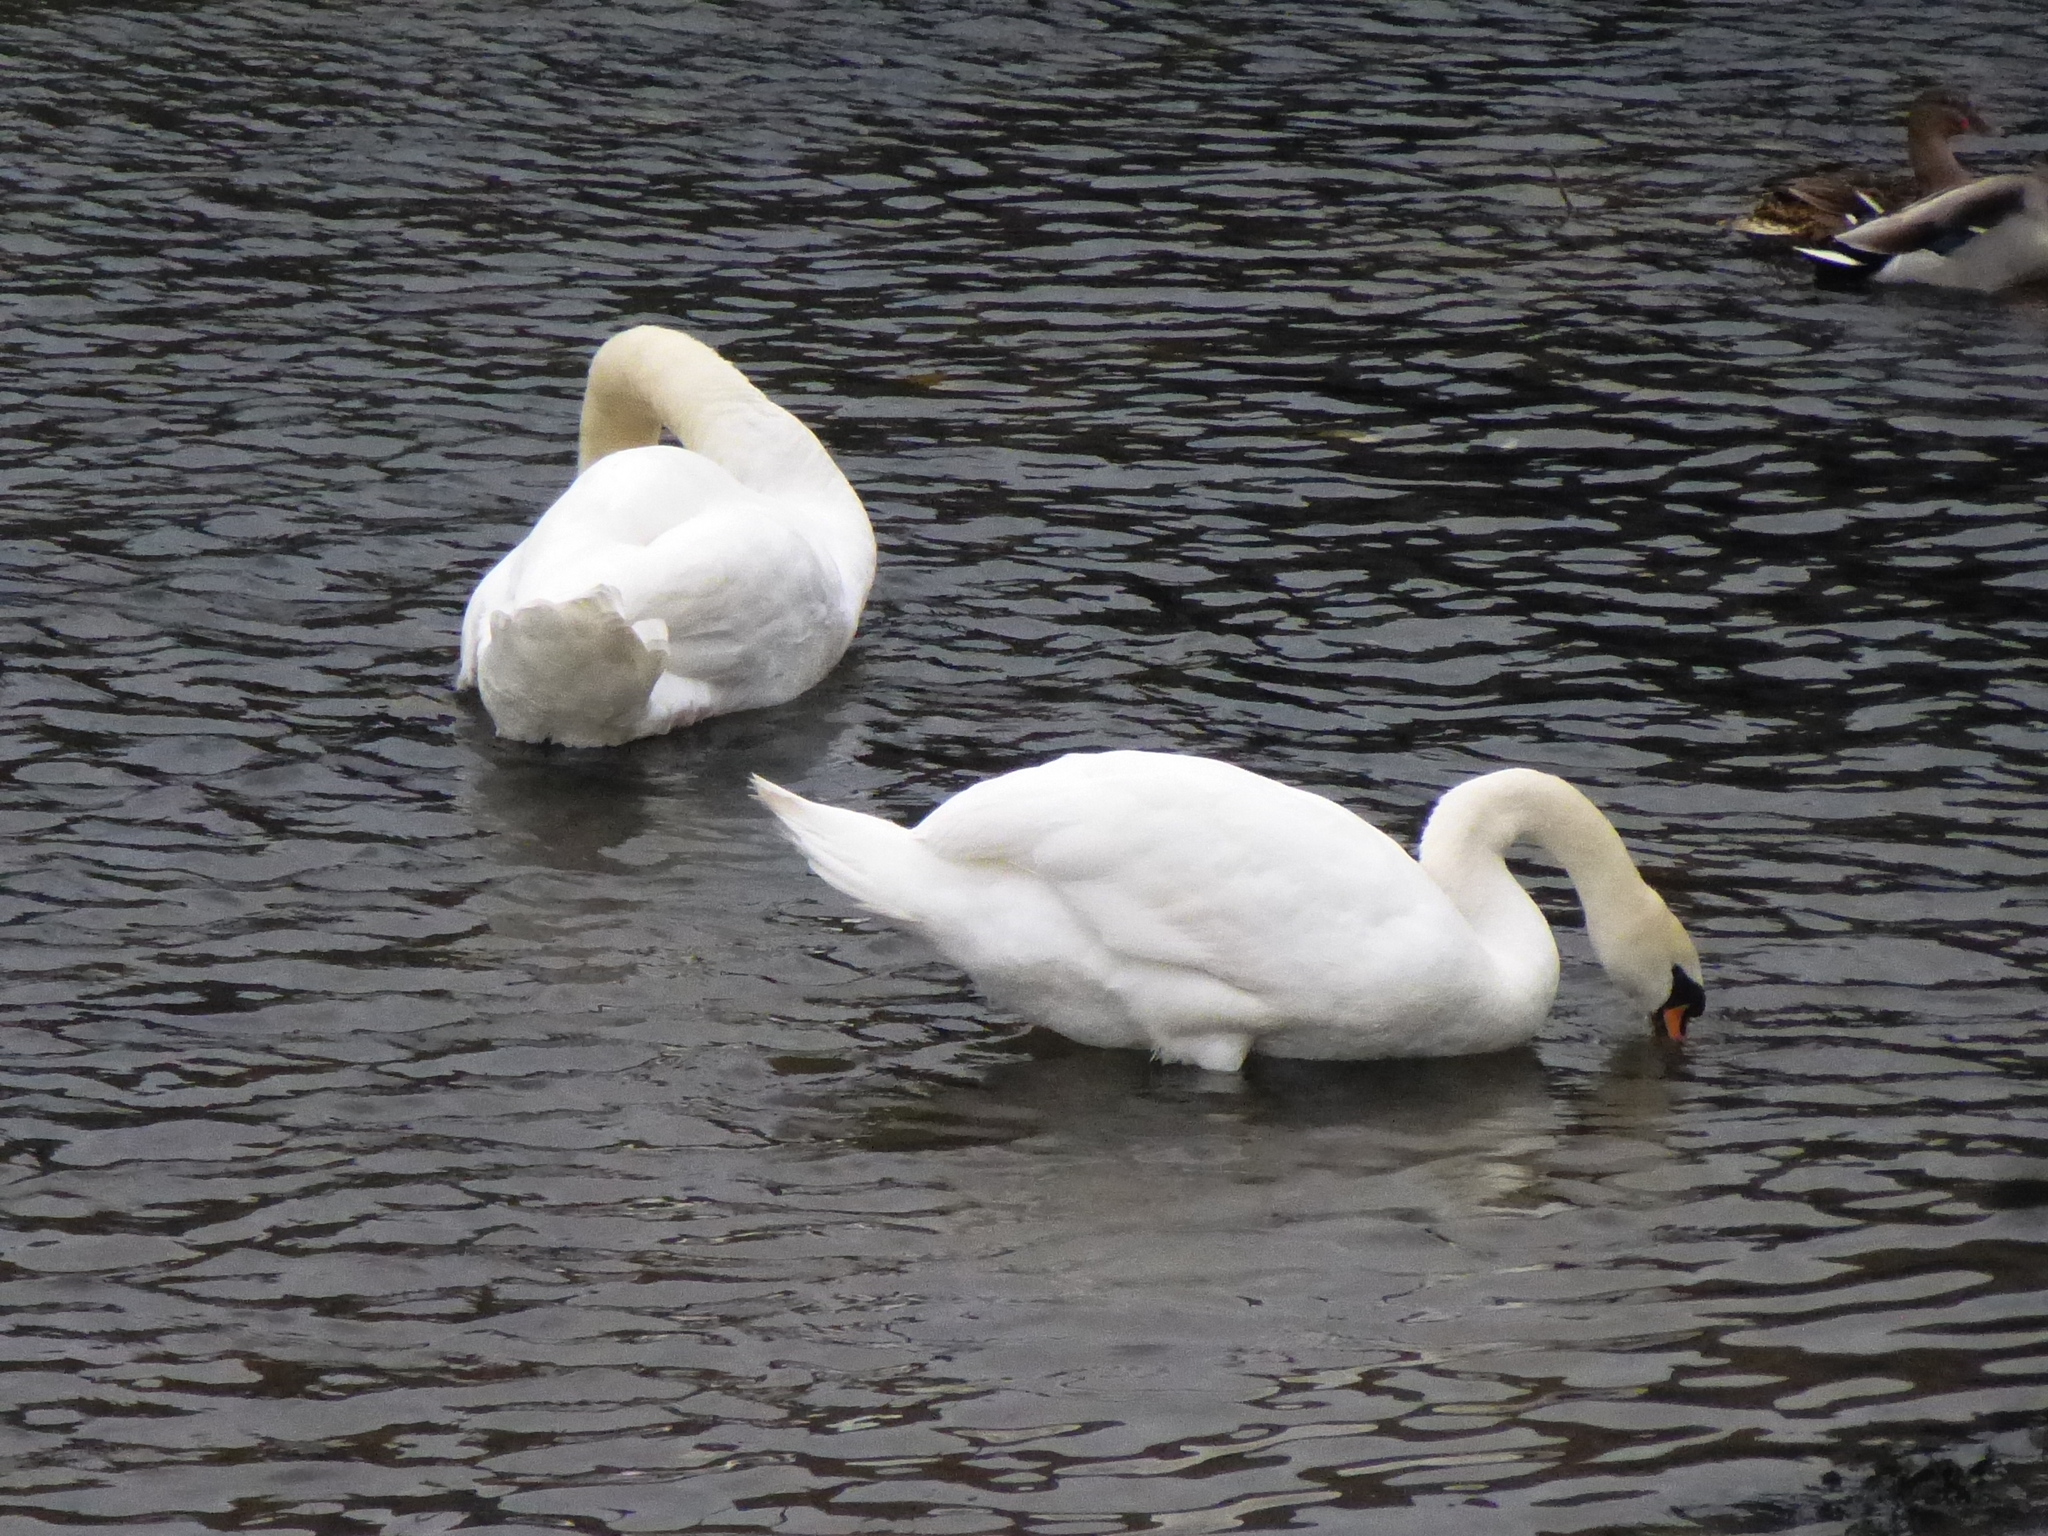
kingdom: Animalia
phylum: Chordata
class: Aves
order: Anseriformes
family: Anatidae
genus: Cygnus
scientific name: Cygnus olor
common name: Mute swan
